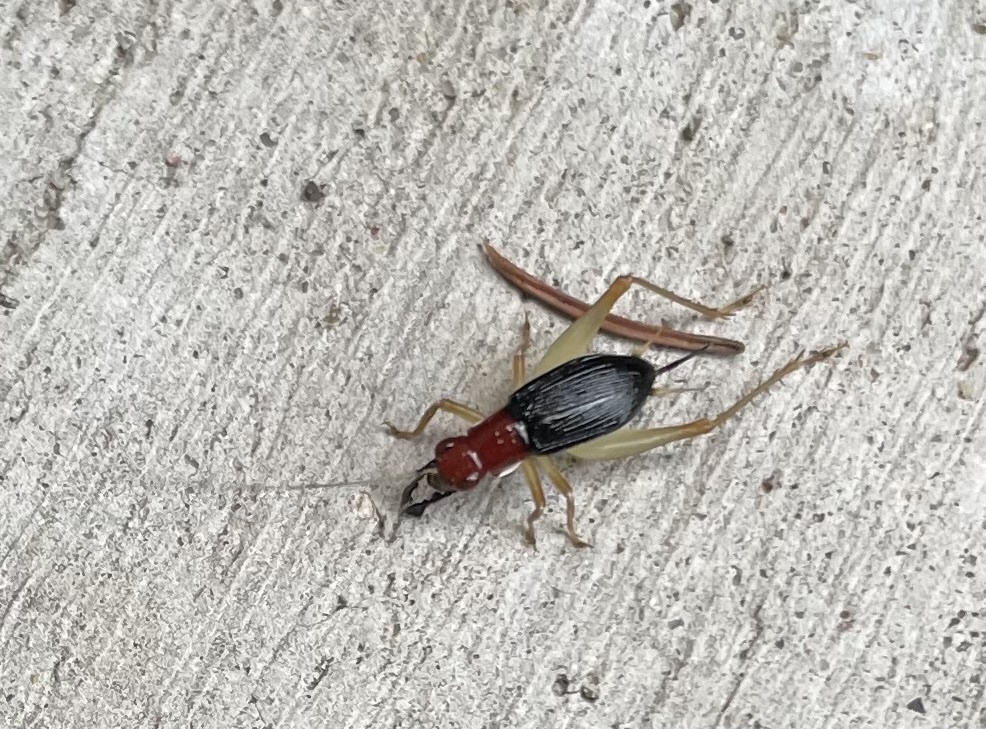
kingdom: Animalia
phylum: Arthropoda
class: Insecta
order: Orthoptera
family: Trigonidiidae
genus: Phyllopalpus
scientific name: Phyllopalpus pulchellus
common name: Handsome trig
